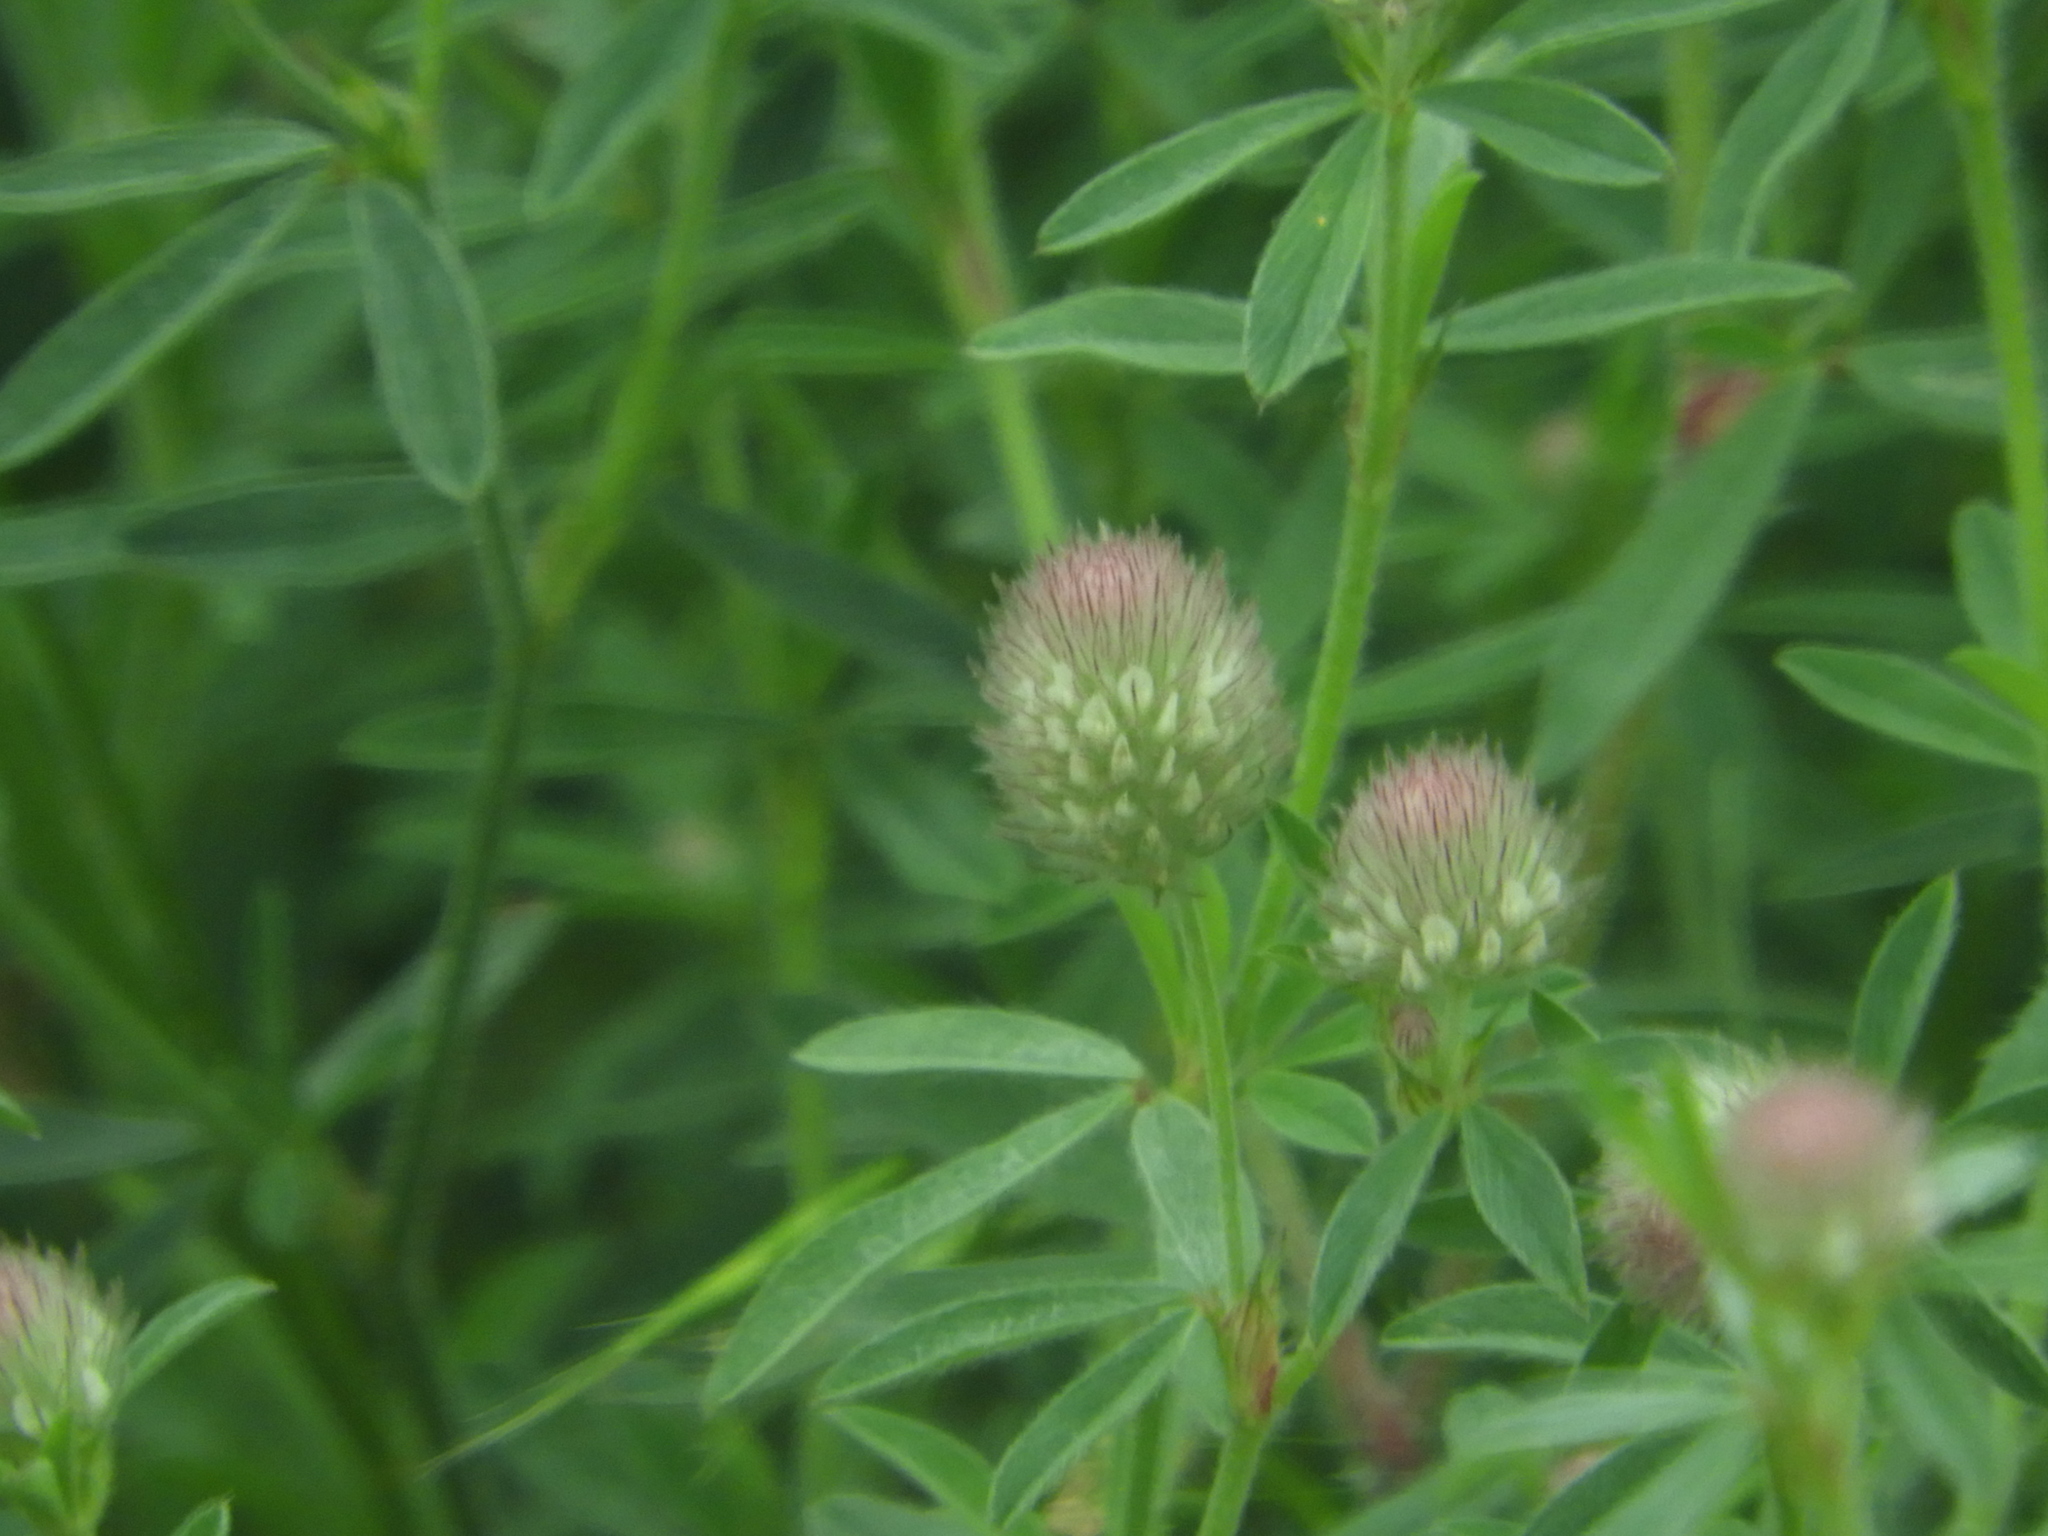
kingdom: Plantae
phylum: Tracheophyta
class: Magnoliopsida
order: Fabales
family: Fabaceae
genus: Trifolium
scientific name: Trifolium arvense
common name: Hare's-foot clover
